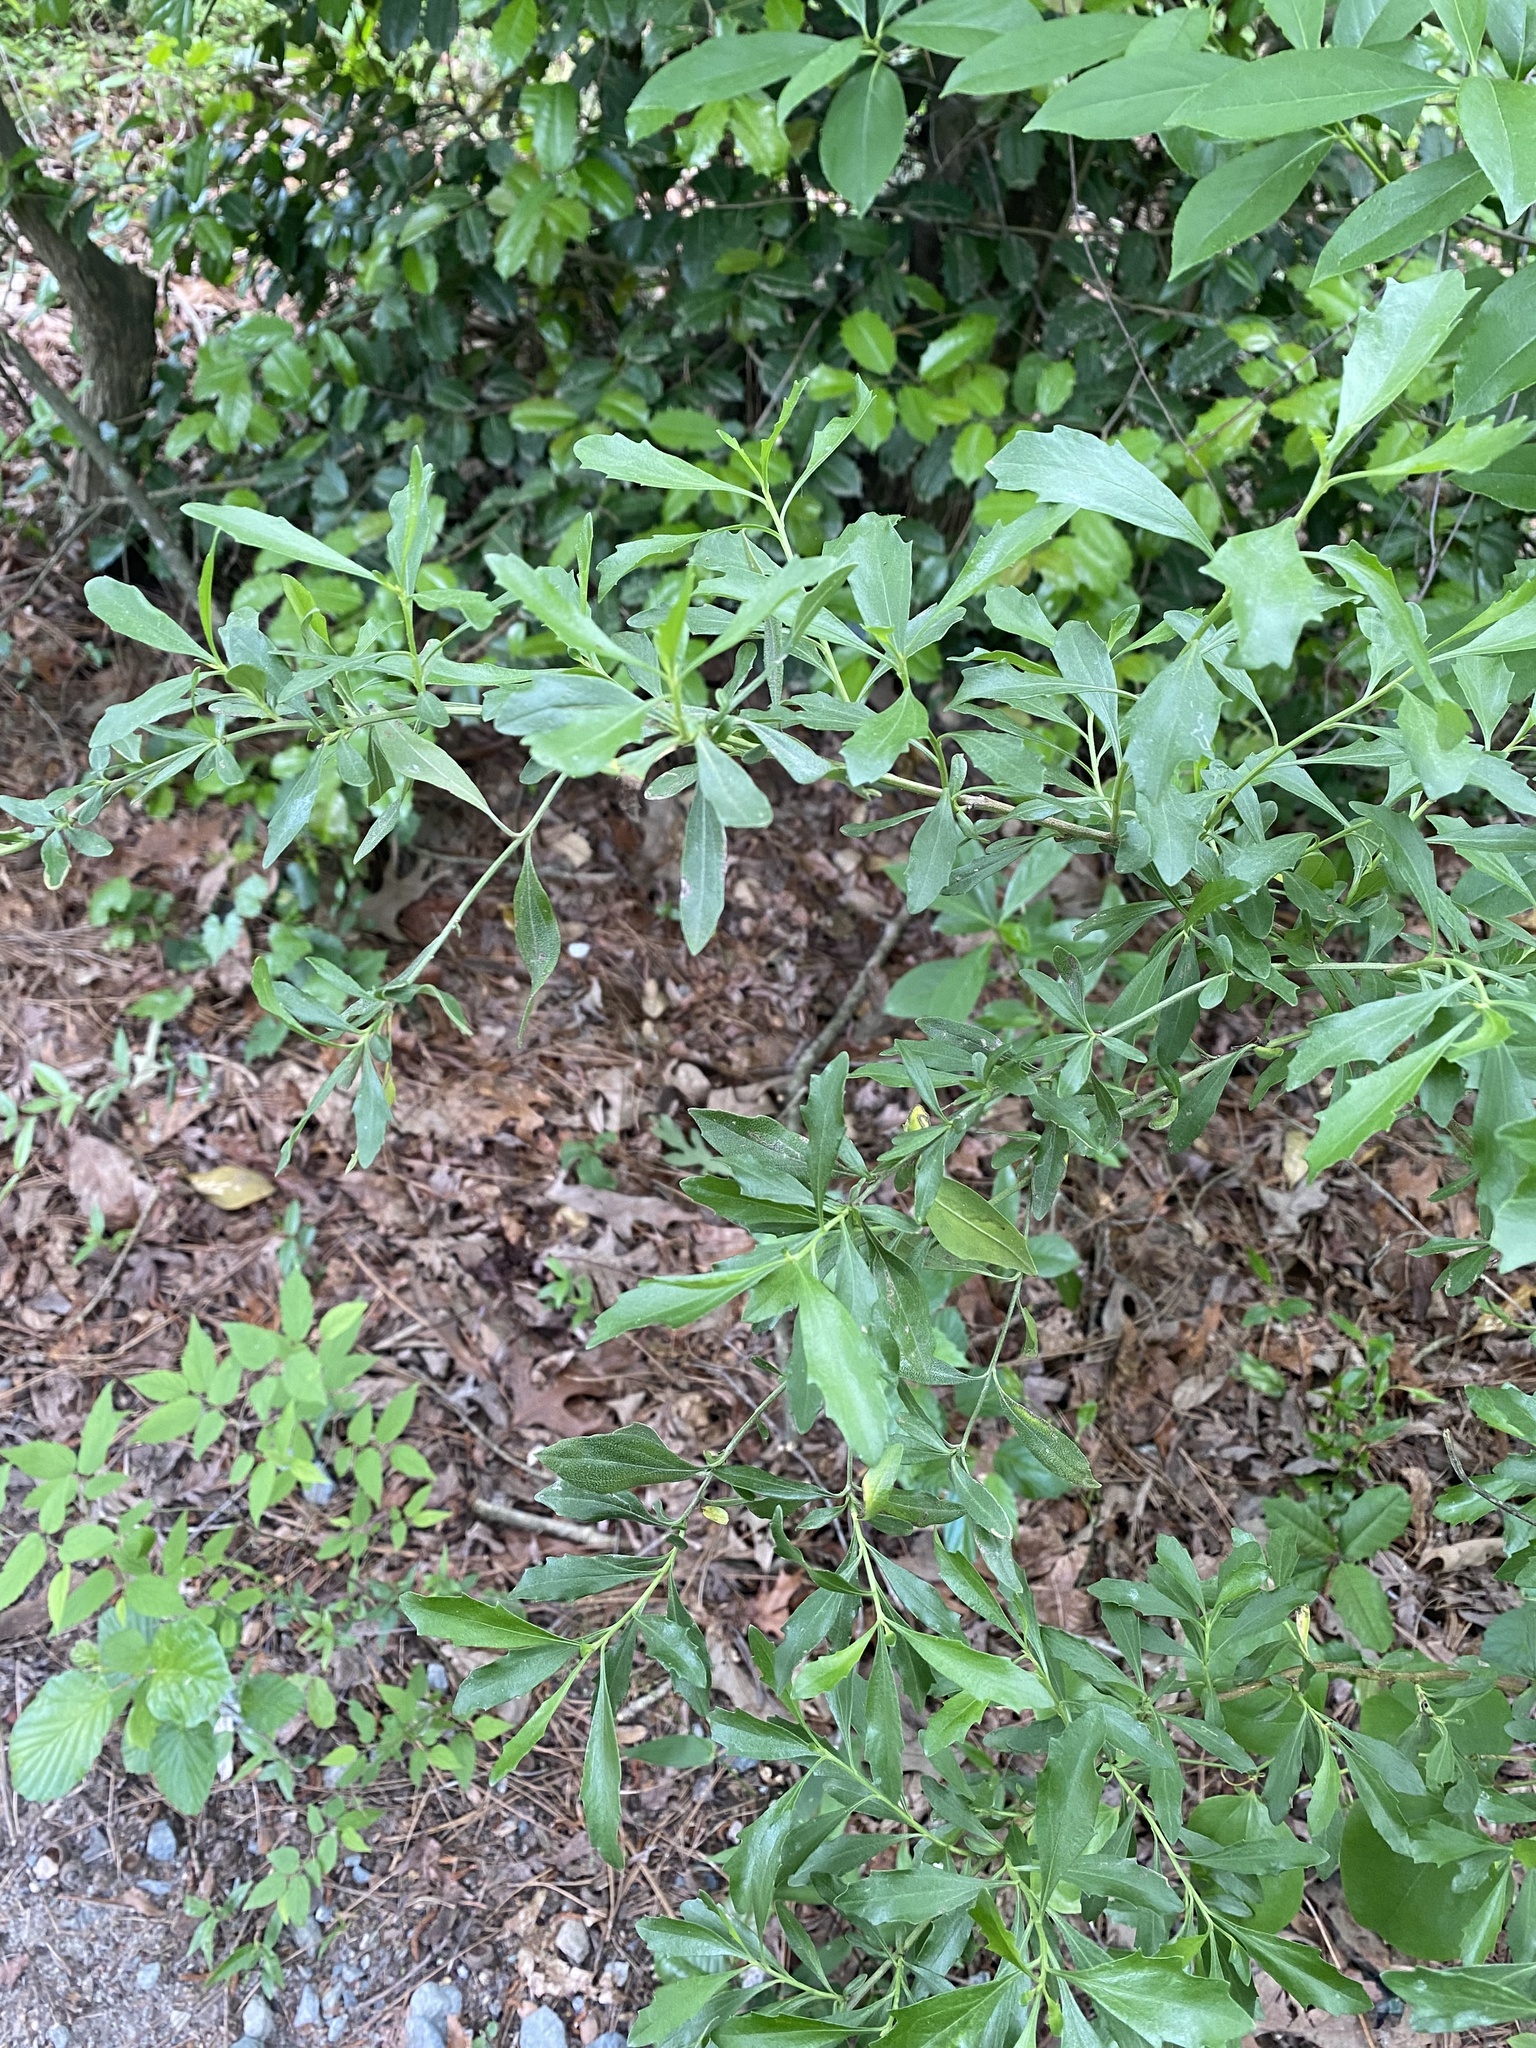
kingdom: Plantae
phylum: Tracheophyta
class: Magnoliopsida
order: Asterales
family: Asteraceae
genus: Baccharis
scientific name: Baccharis halimifolia
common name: Eastern baccharis
